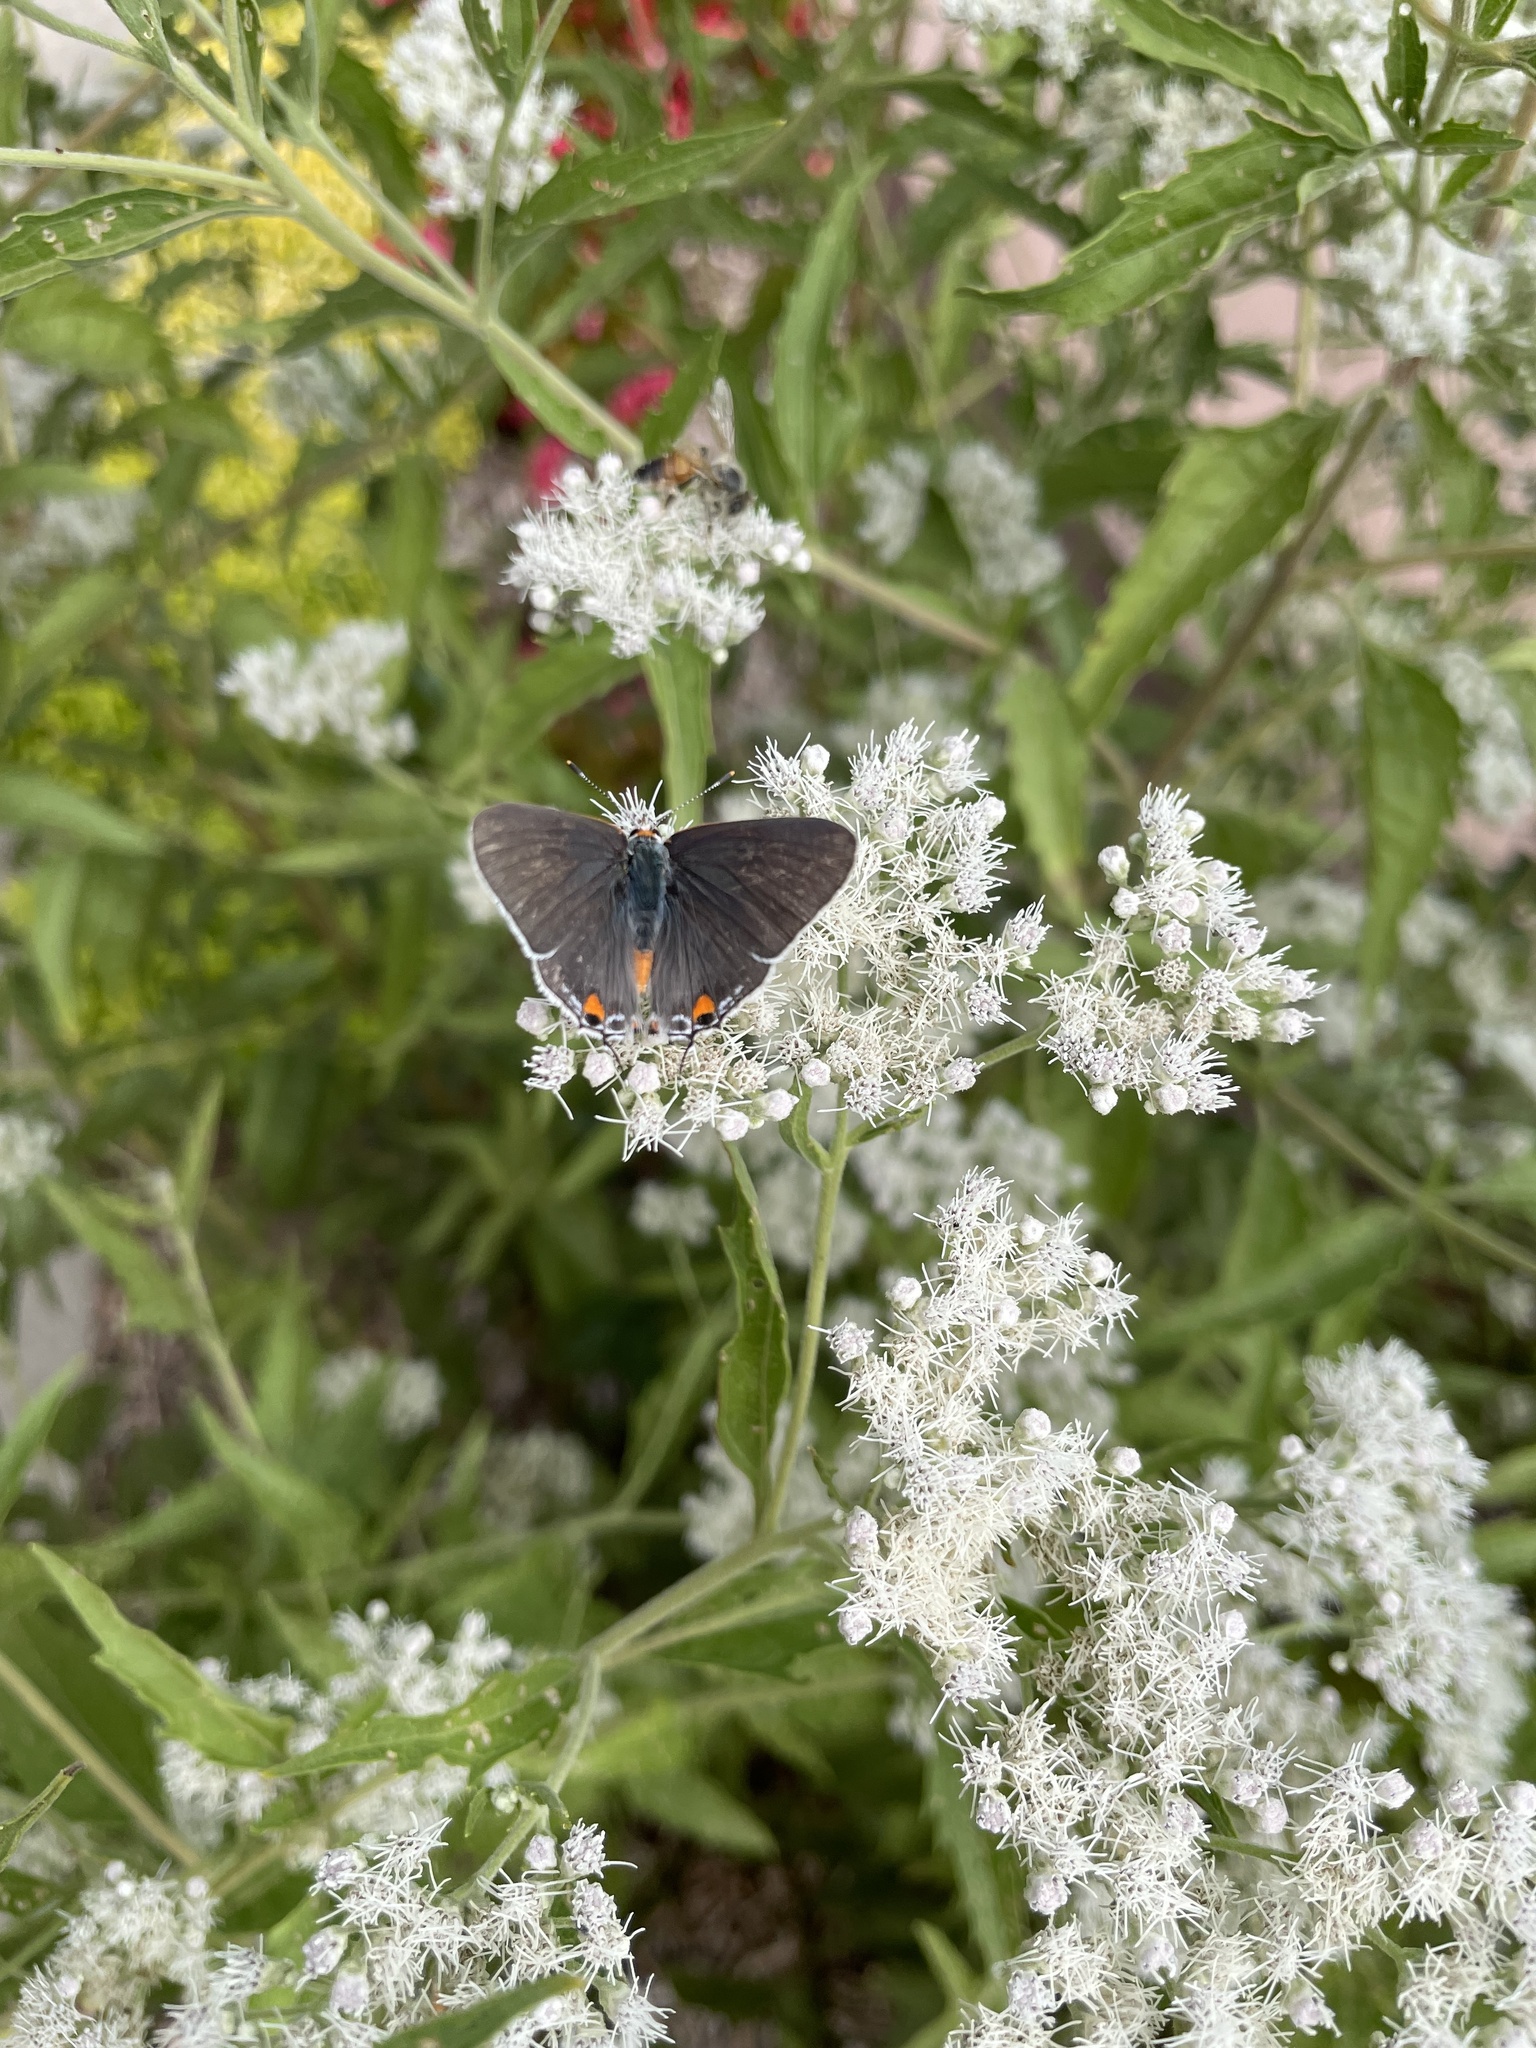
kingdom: Animalia
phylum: Arthropoda
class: Insecta
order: Lepidoptera
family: Lycaenidae
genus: Strymon
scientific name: Strymon melinus
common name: Gray hairstreak
